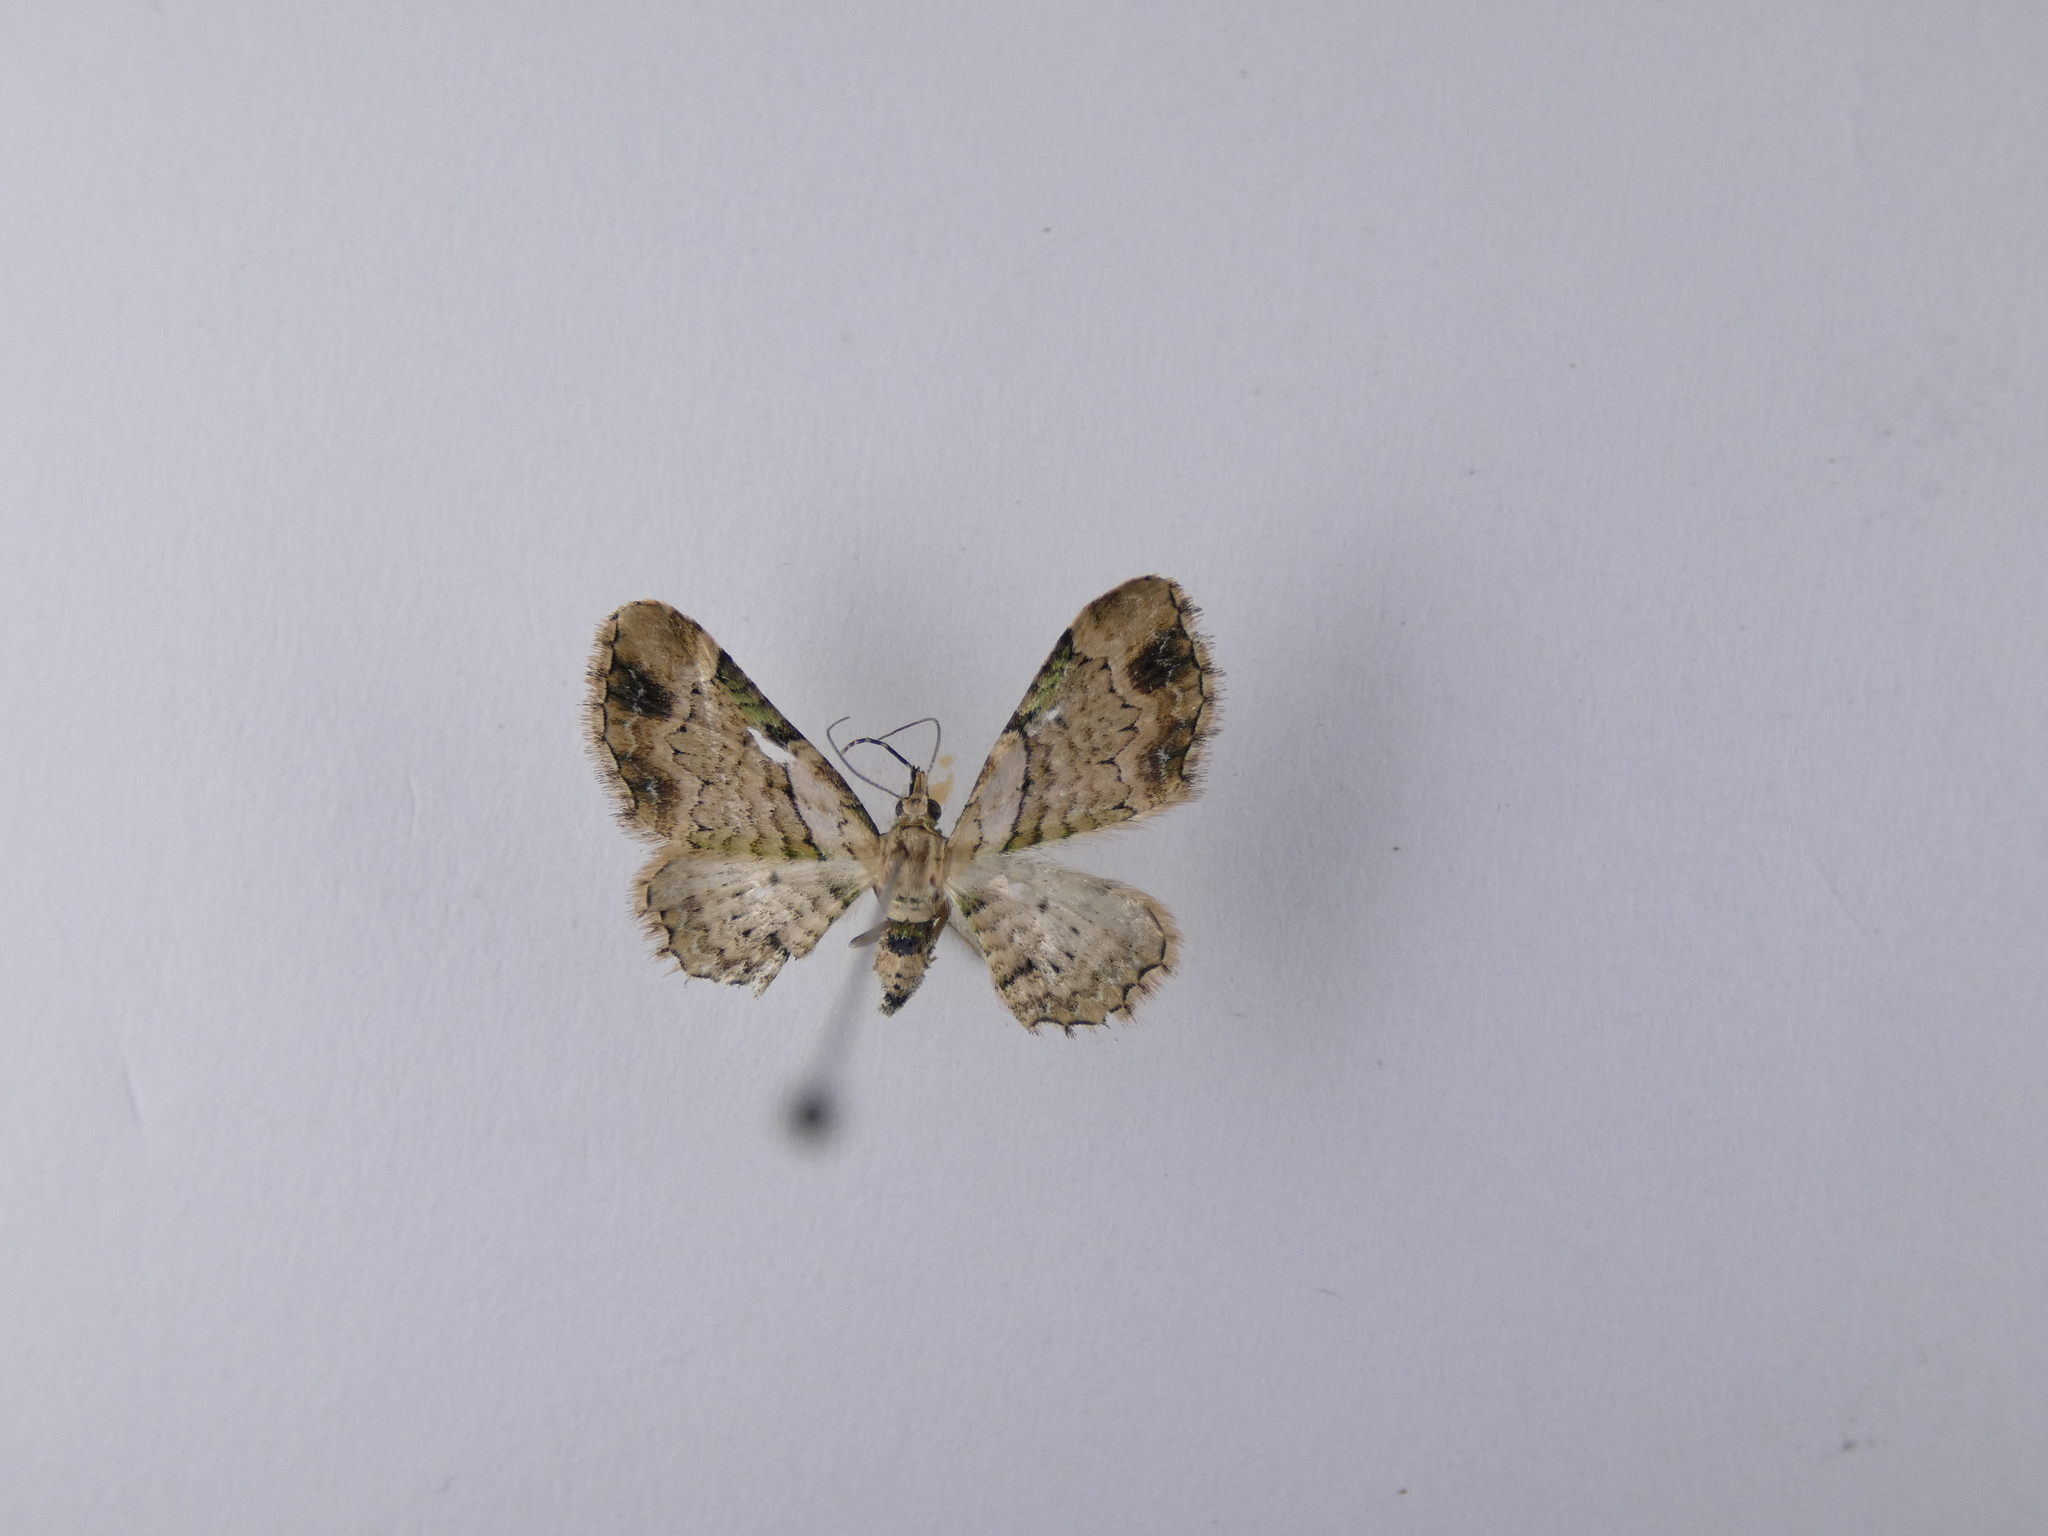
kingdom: Animalia
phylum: Arthropoda
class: Insecta
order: Lepidoptera
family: Geometridae
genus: Chloroclystis
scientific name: Chloroclystis
